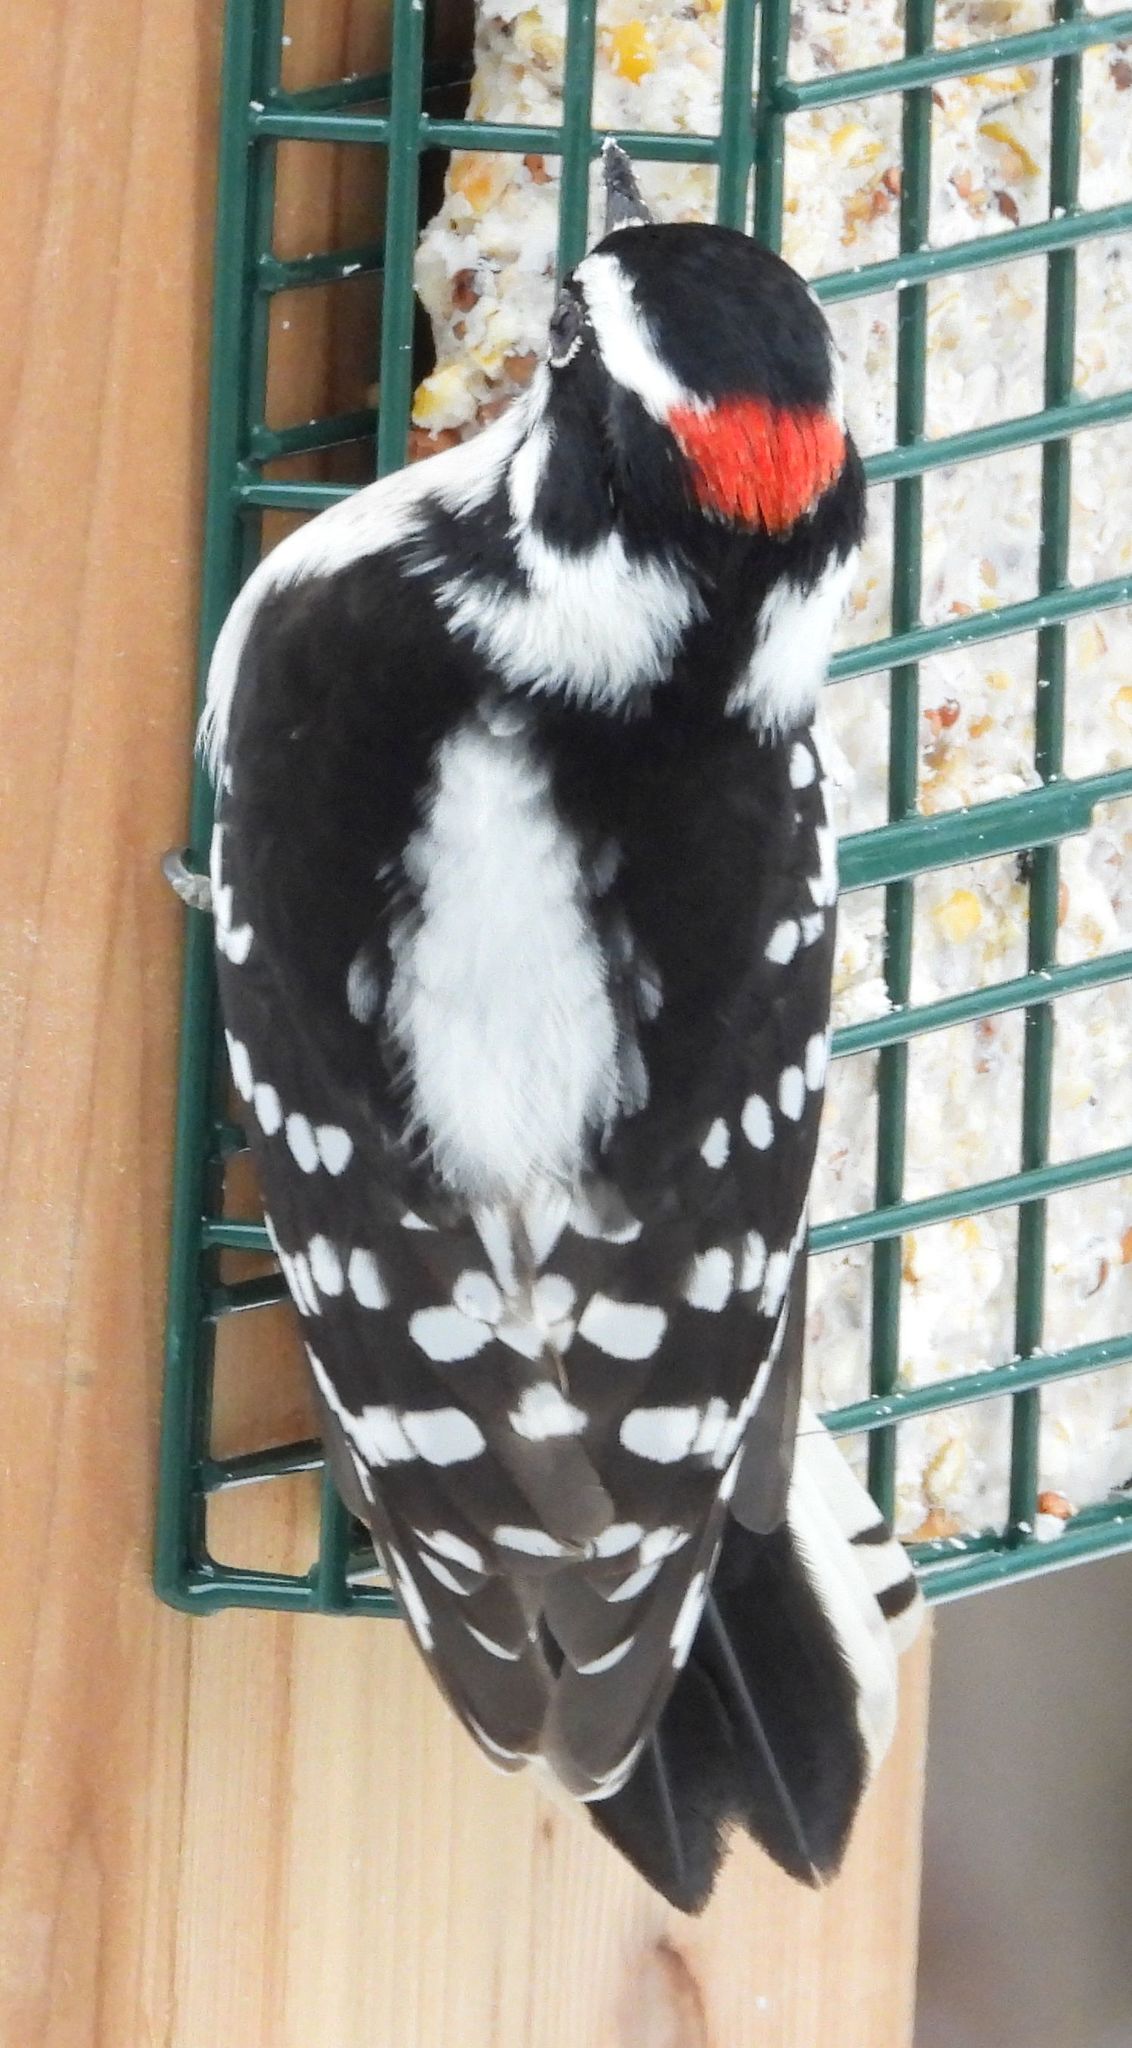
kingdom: Animalia
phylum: Chordata
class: Aves
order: Piciformes
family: Picidae
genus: Dryobates
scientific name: Dryobates pubescens
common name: Downy woodpecker
